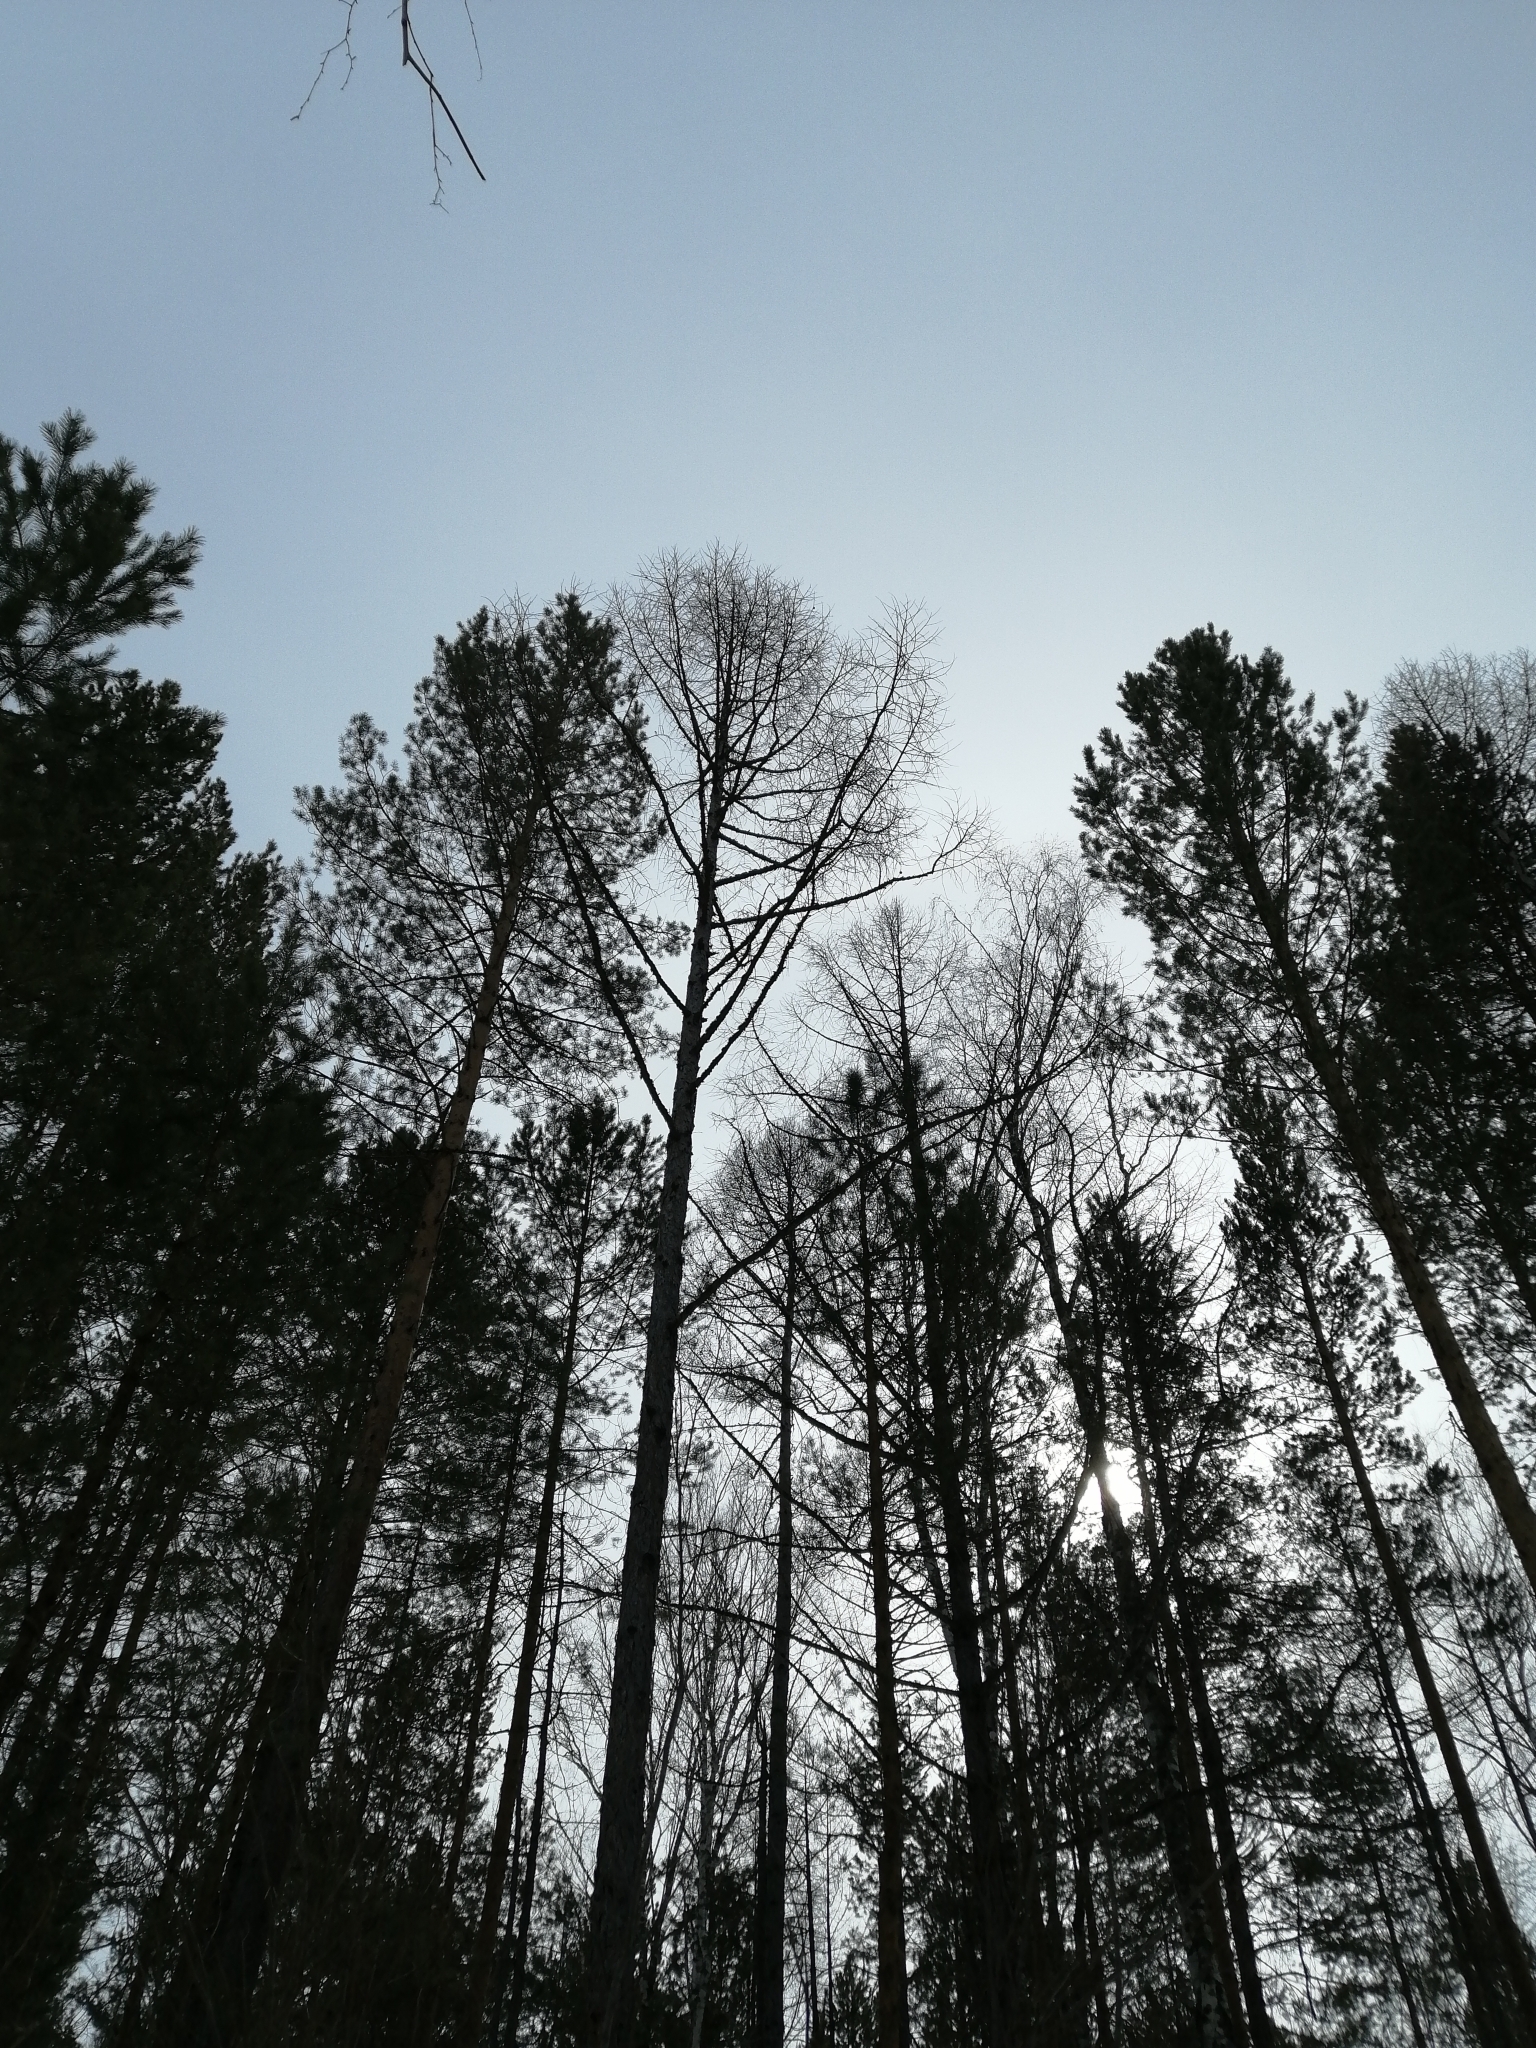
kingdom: Plantae
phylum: Tracheophyta
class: Pinopsida
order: Pinales
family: Pinaceae
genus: Larix
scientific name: Larix sibirica
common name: Siberian larch
